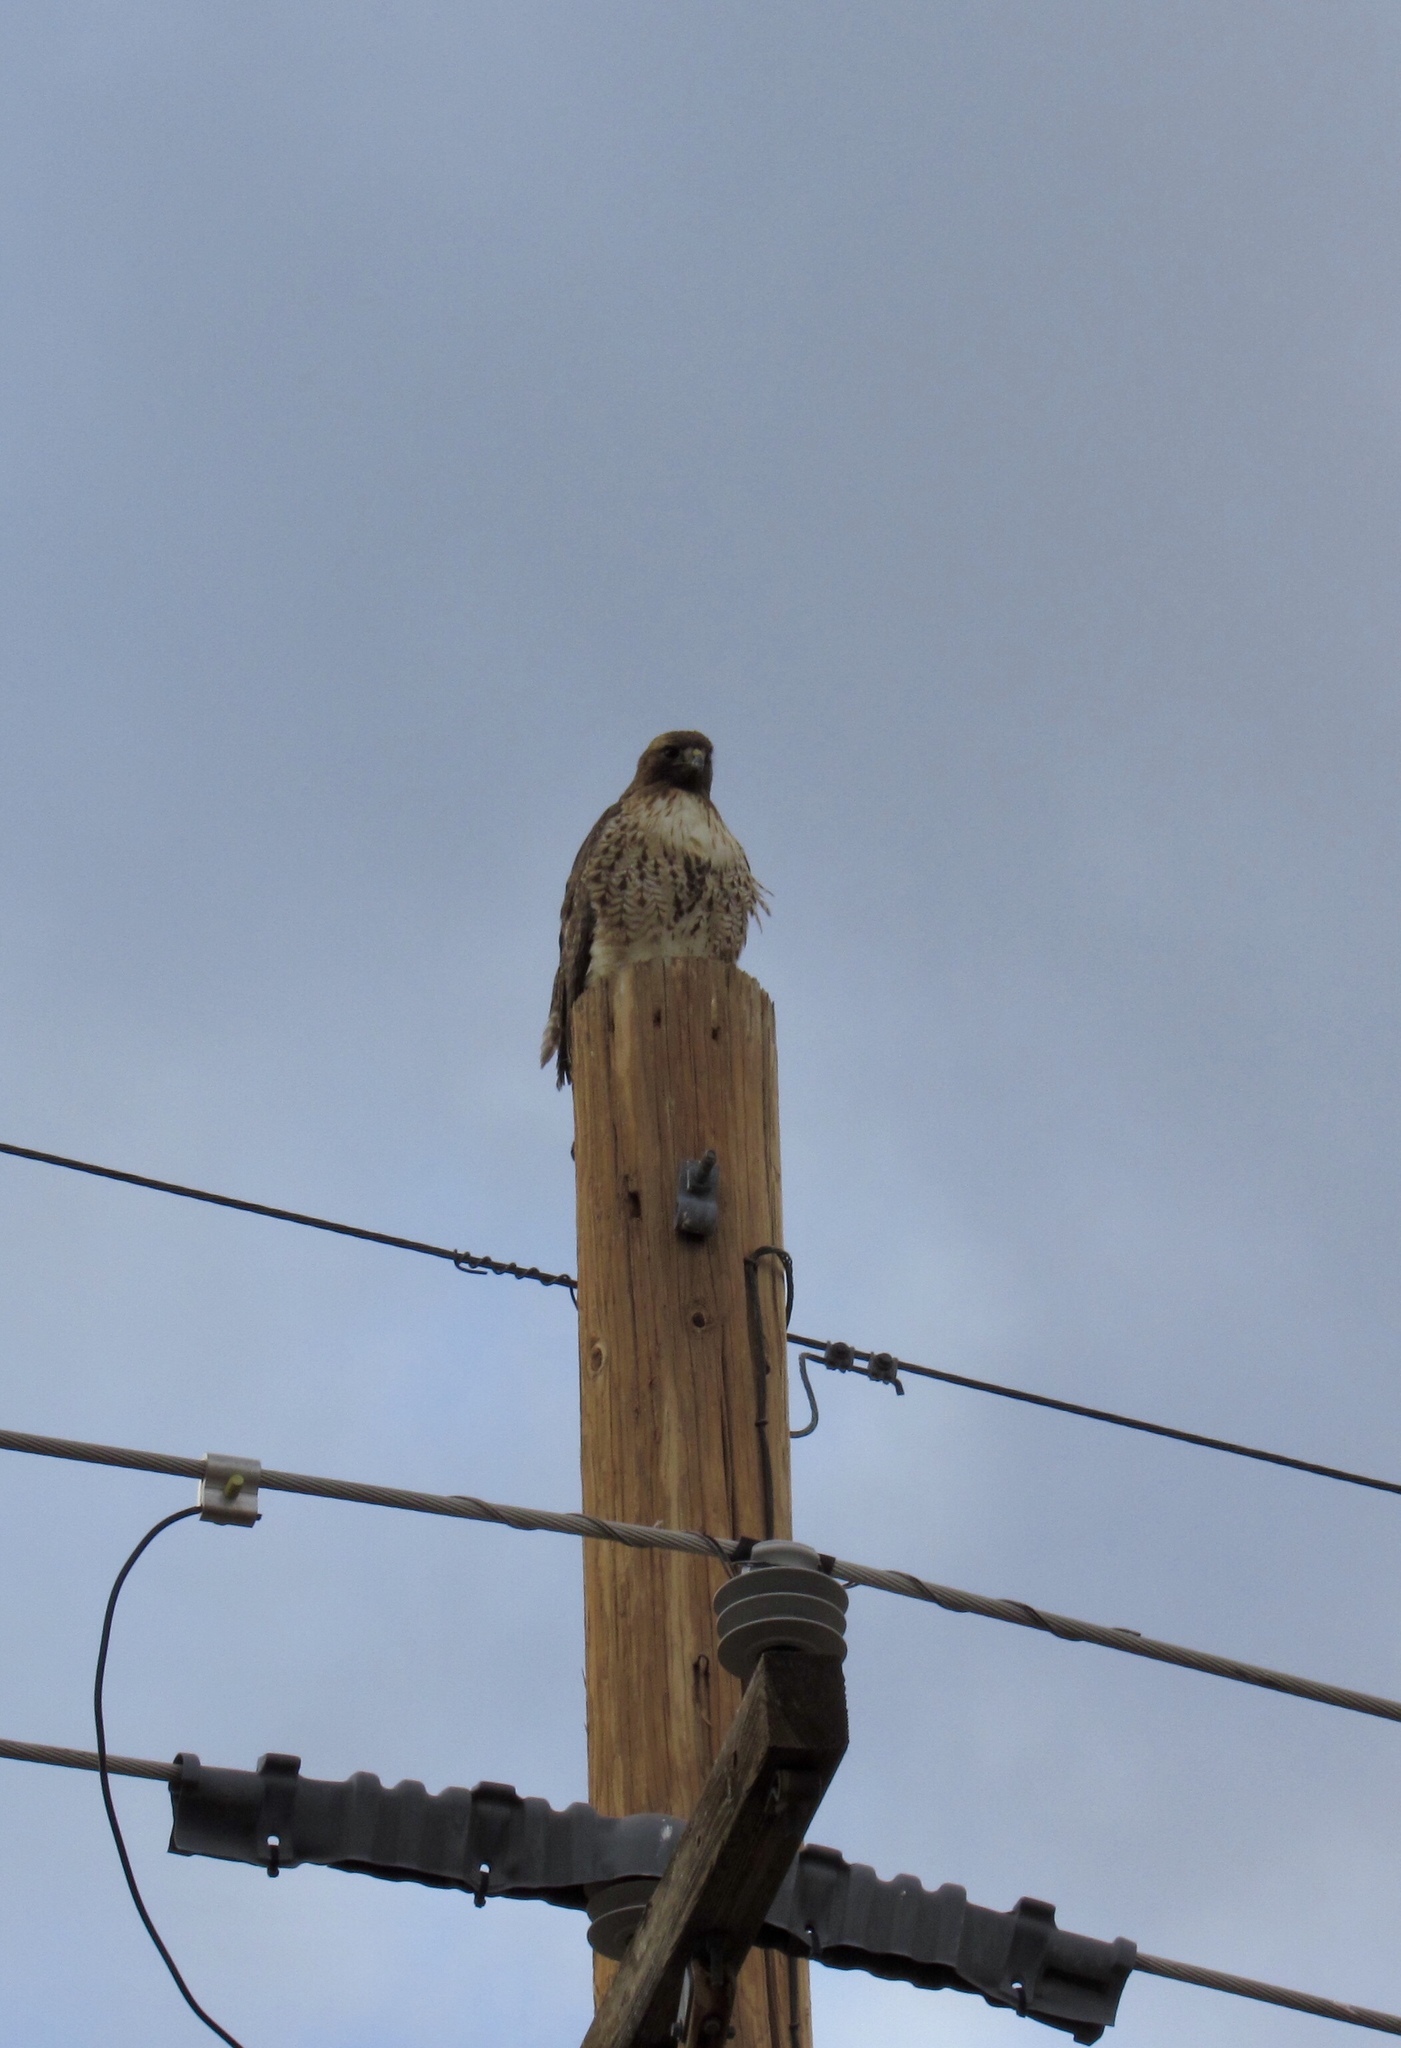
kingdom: Animalia
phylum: Chordata
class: Aves
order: Accipitriformes
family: Accipitridae
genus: Buteo
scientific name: Buteo jamaicensis
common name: Red-tailed hawk
